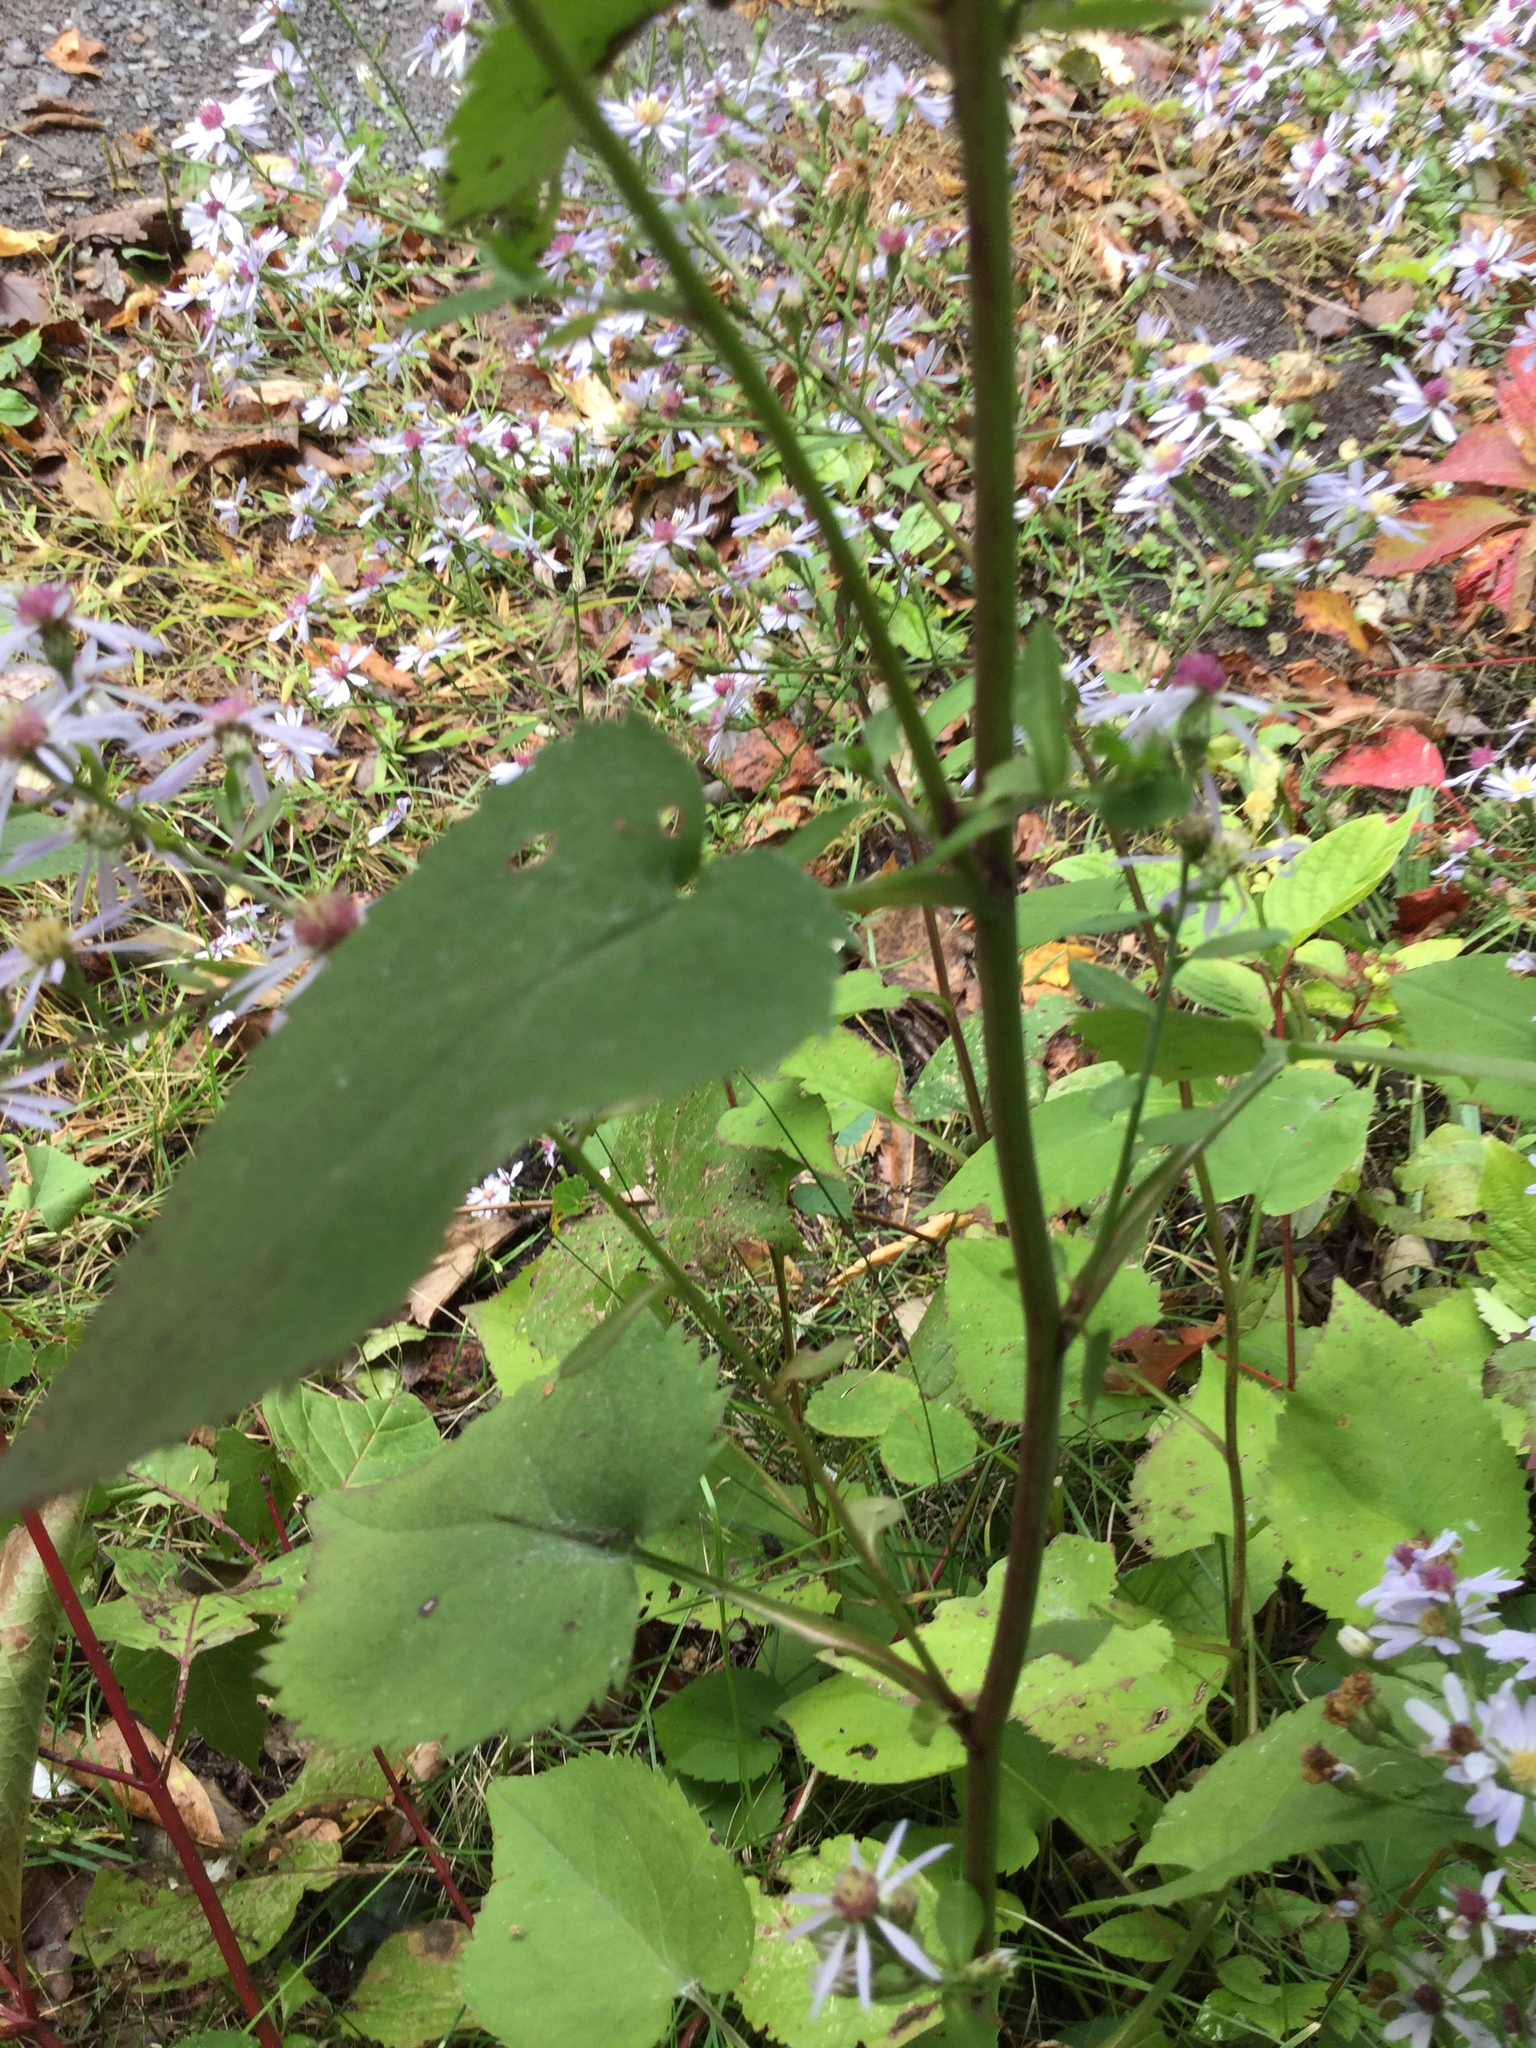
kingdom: Plantae
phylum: Tracheophyta
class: Magnoliopsida
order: Asterales
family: Asteraceae
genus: Symphyotrichum
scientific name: Symphyotrichum cordifolium
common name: Beeweed
